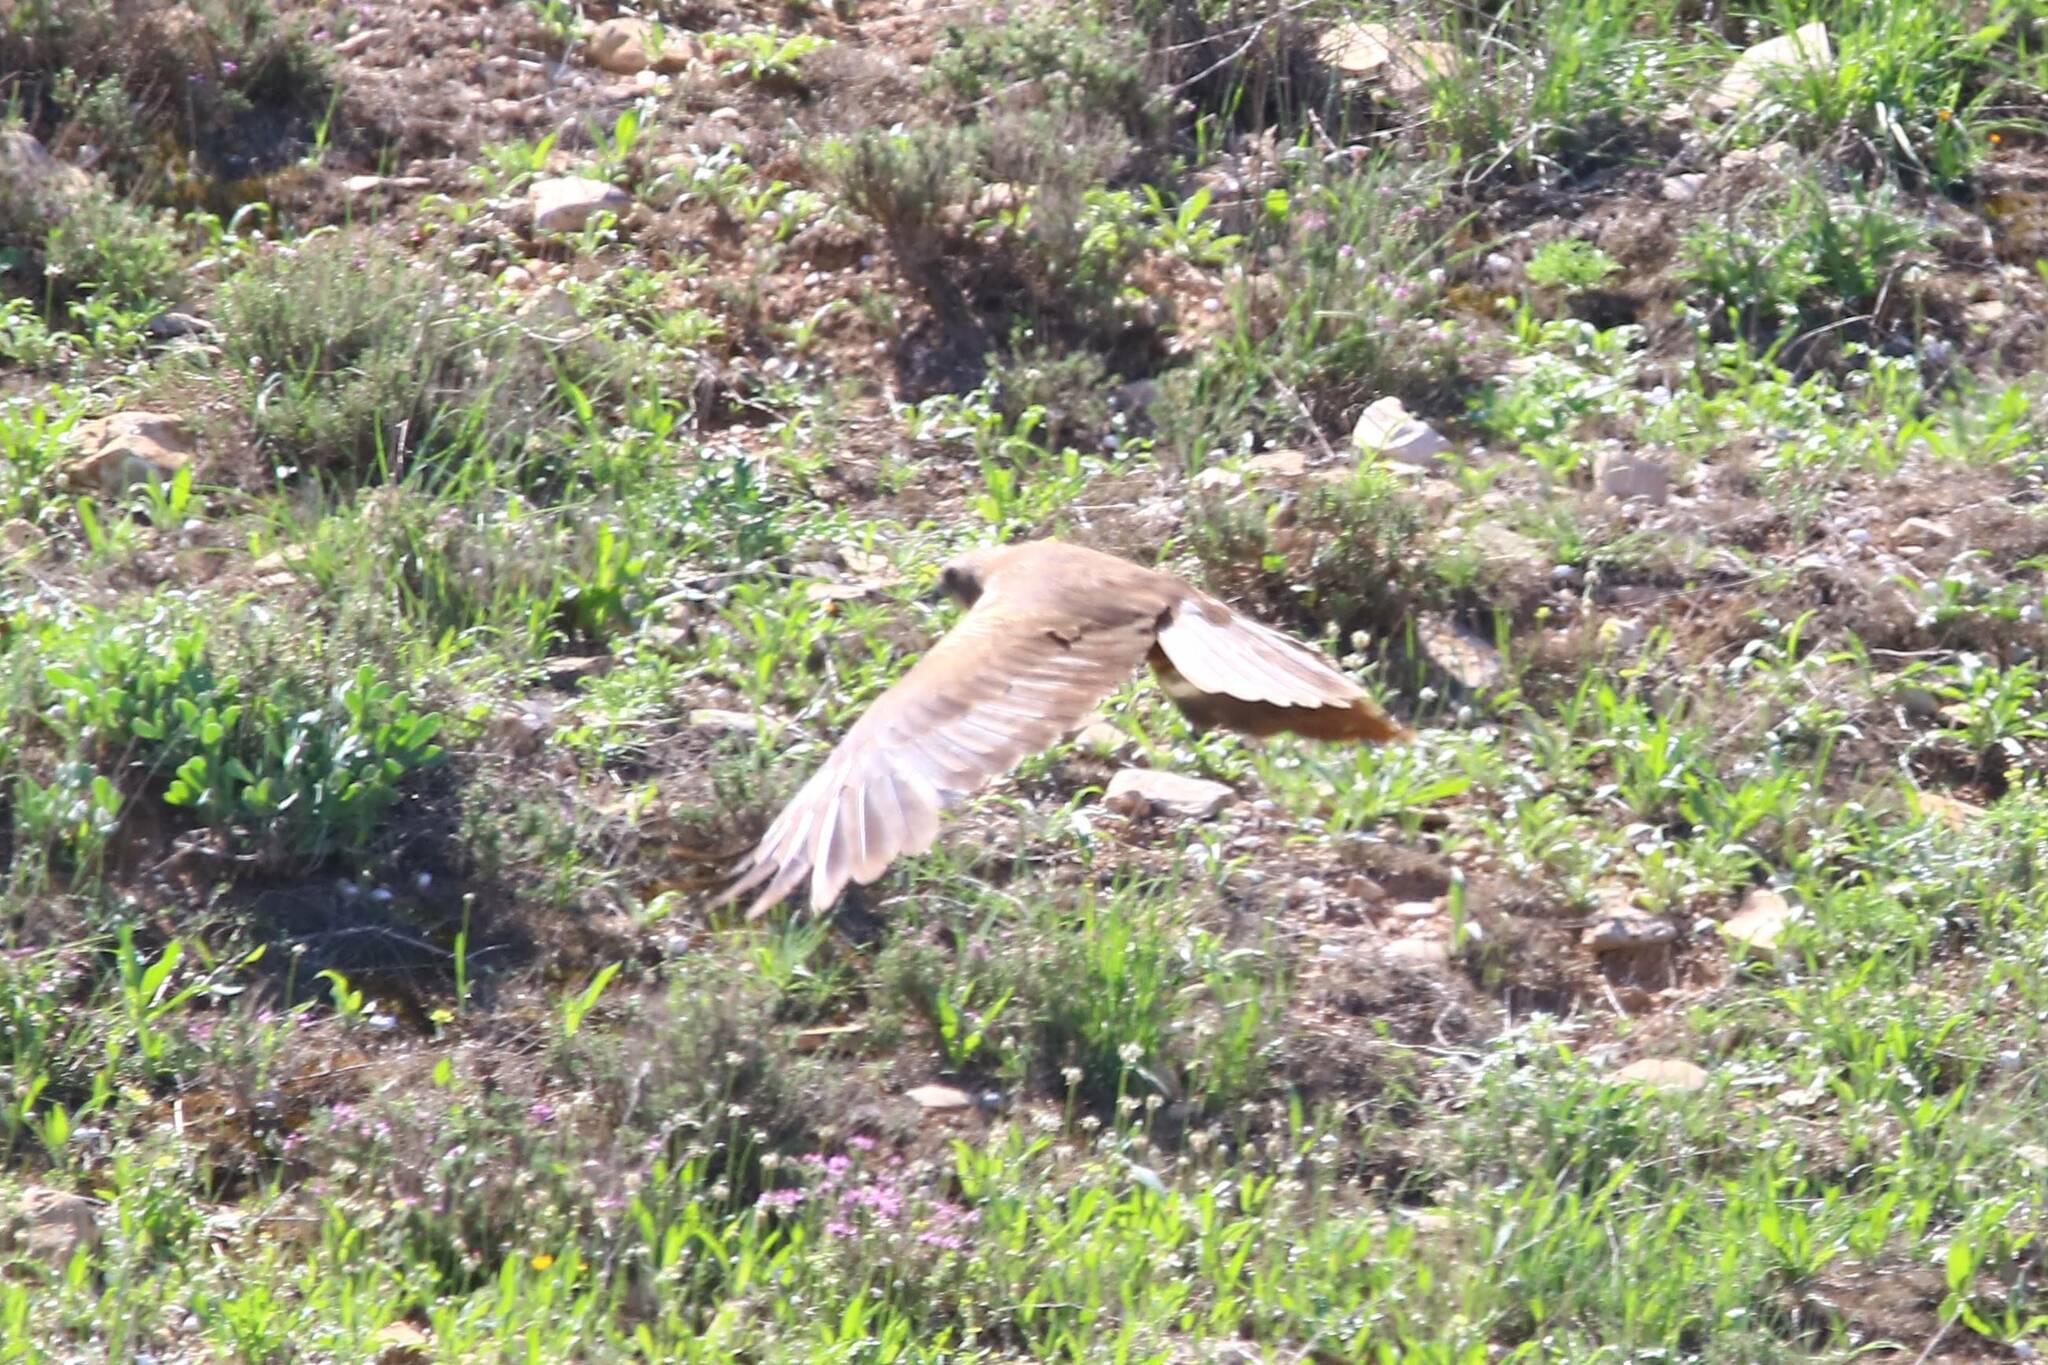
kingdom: Animalia
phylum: Chordata
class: Aves
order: Accipitriformes
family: Accipitridae
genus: Circus
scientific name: Circus aeruginosus
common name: Western marsh harrier
